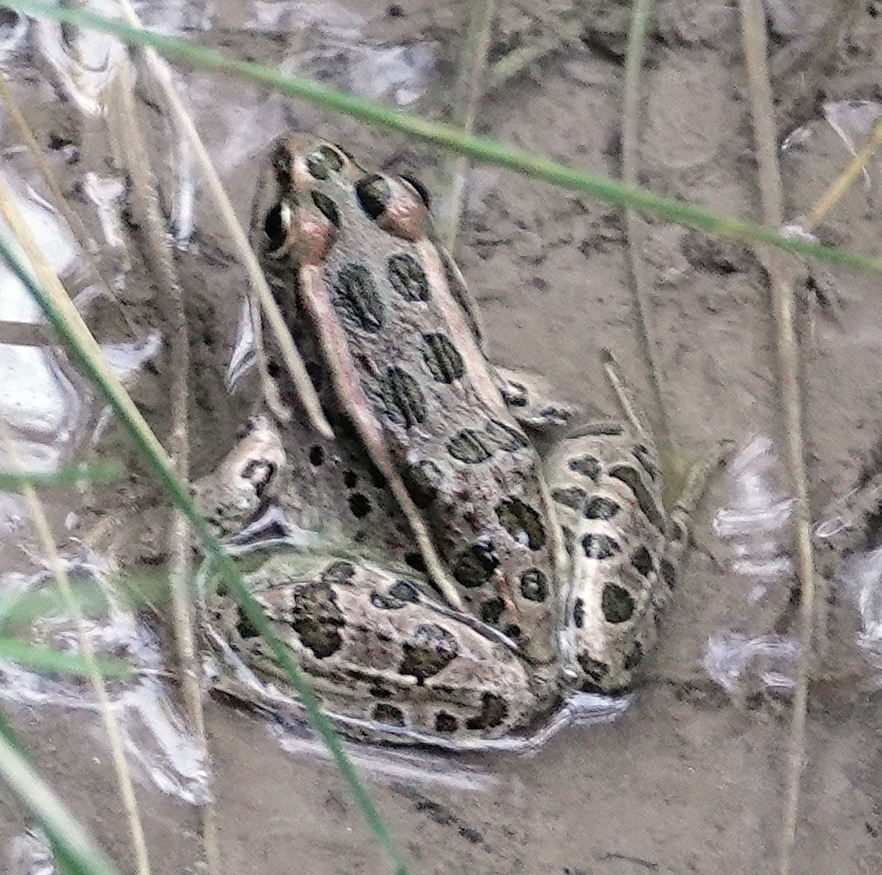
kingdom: Animalia
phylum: Chordata
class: Amphibia
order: Anura
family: Ranidae
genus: Lithobates
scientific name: Lithobates pipiens
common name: Northern leopard frog
